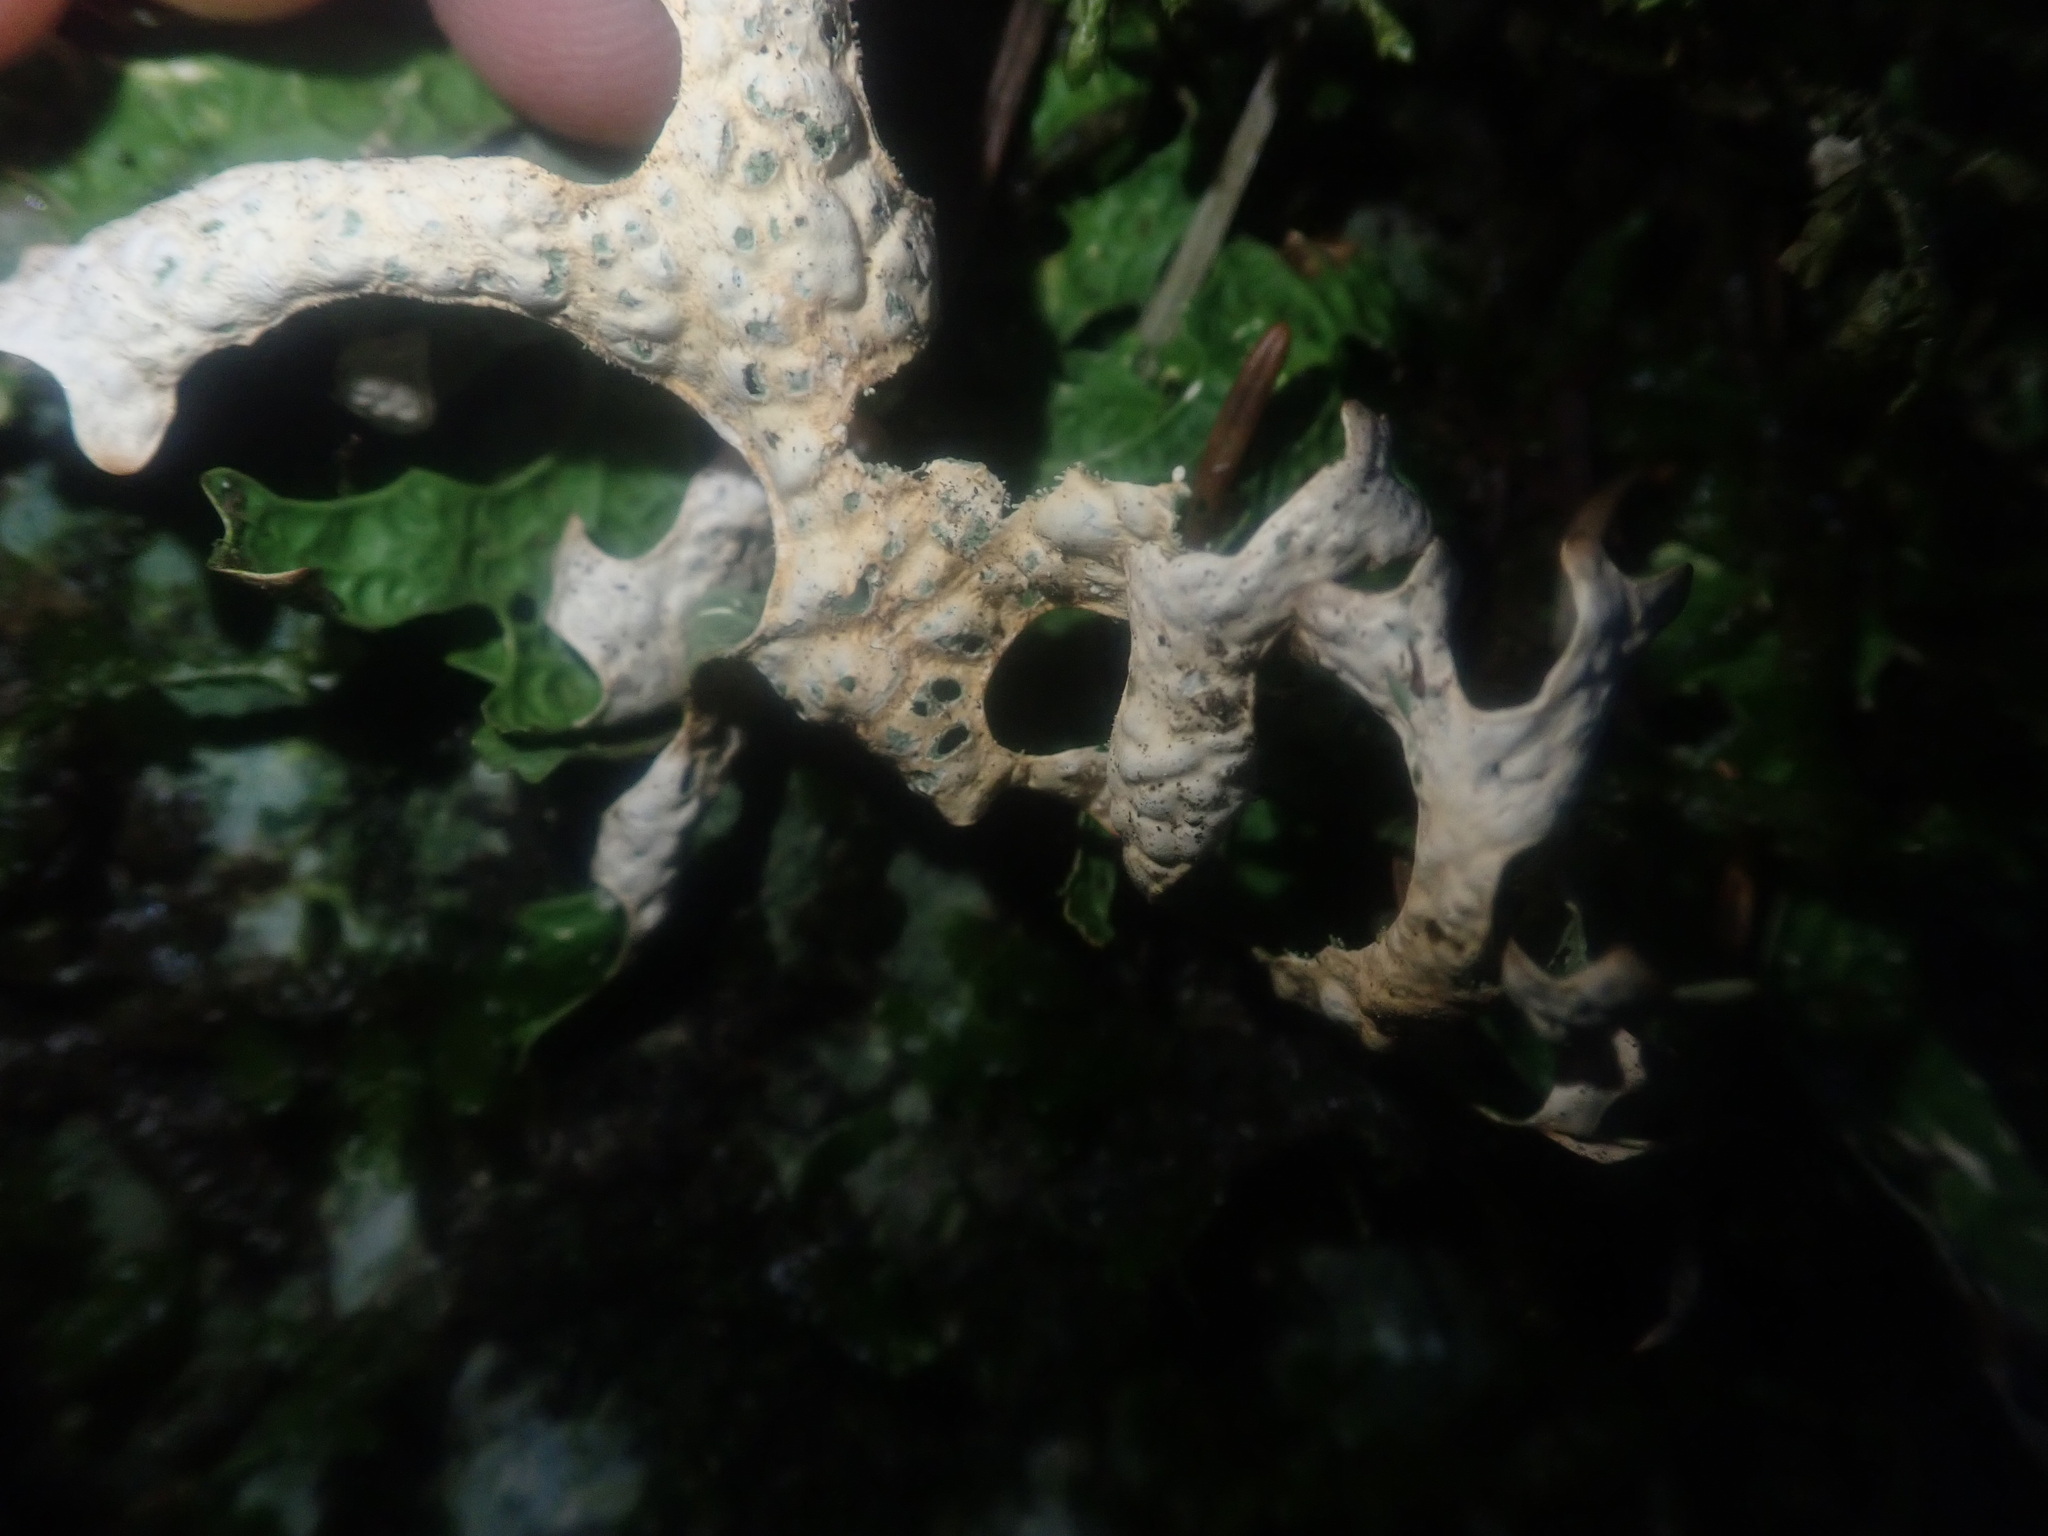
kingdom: Fungi
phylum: Ascomycota
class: Lecanoromycetes
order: Peltigerales
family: Lobariaceae
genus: Lobaria
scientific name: Lobaria pulmonaria
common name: Lungwort
